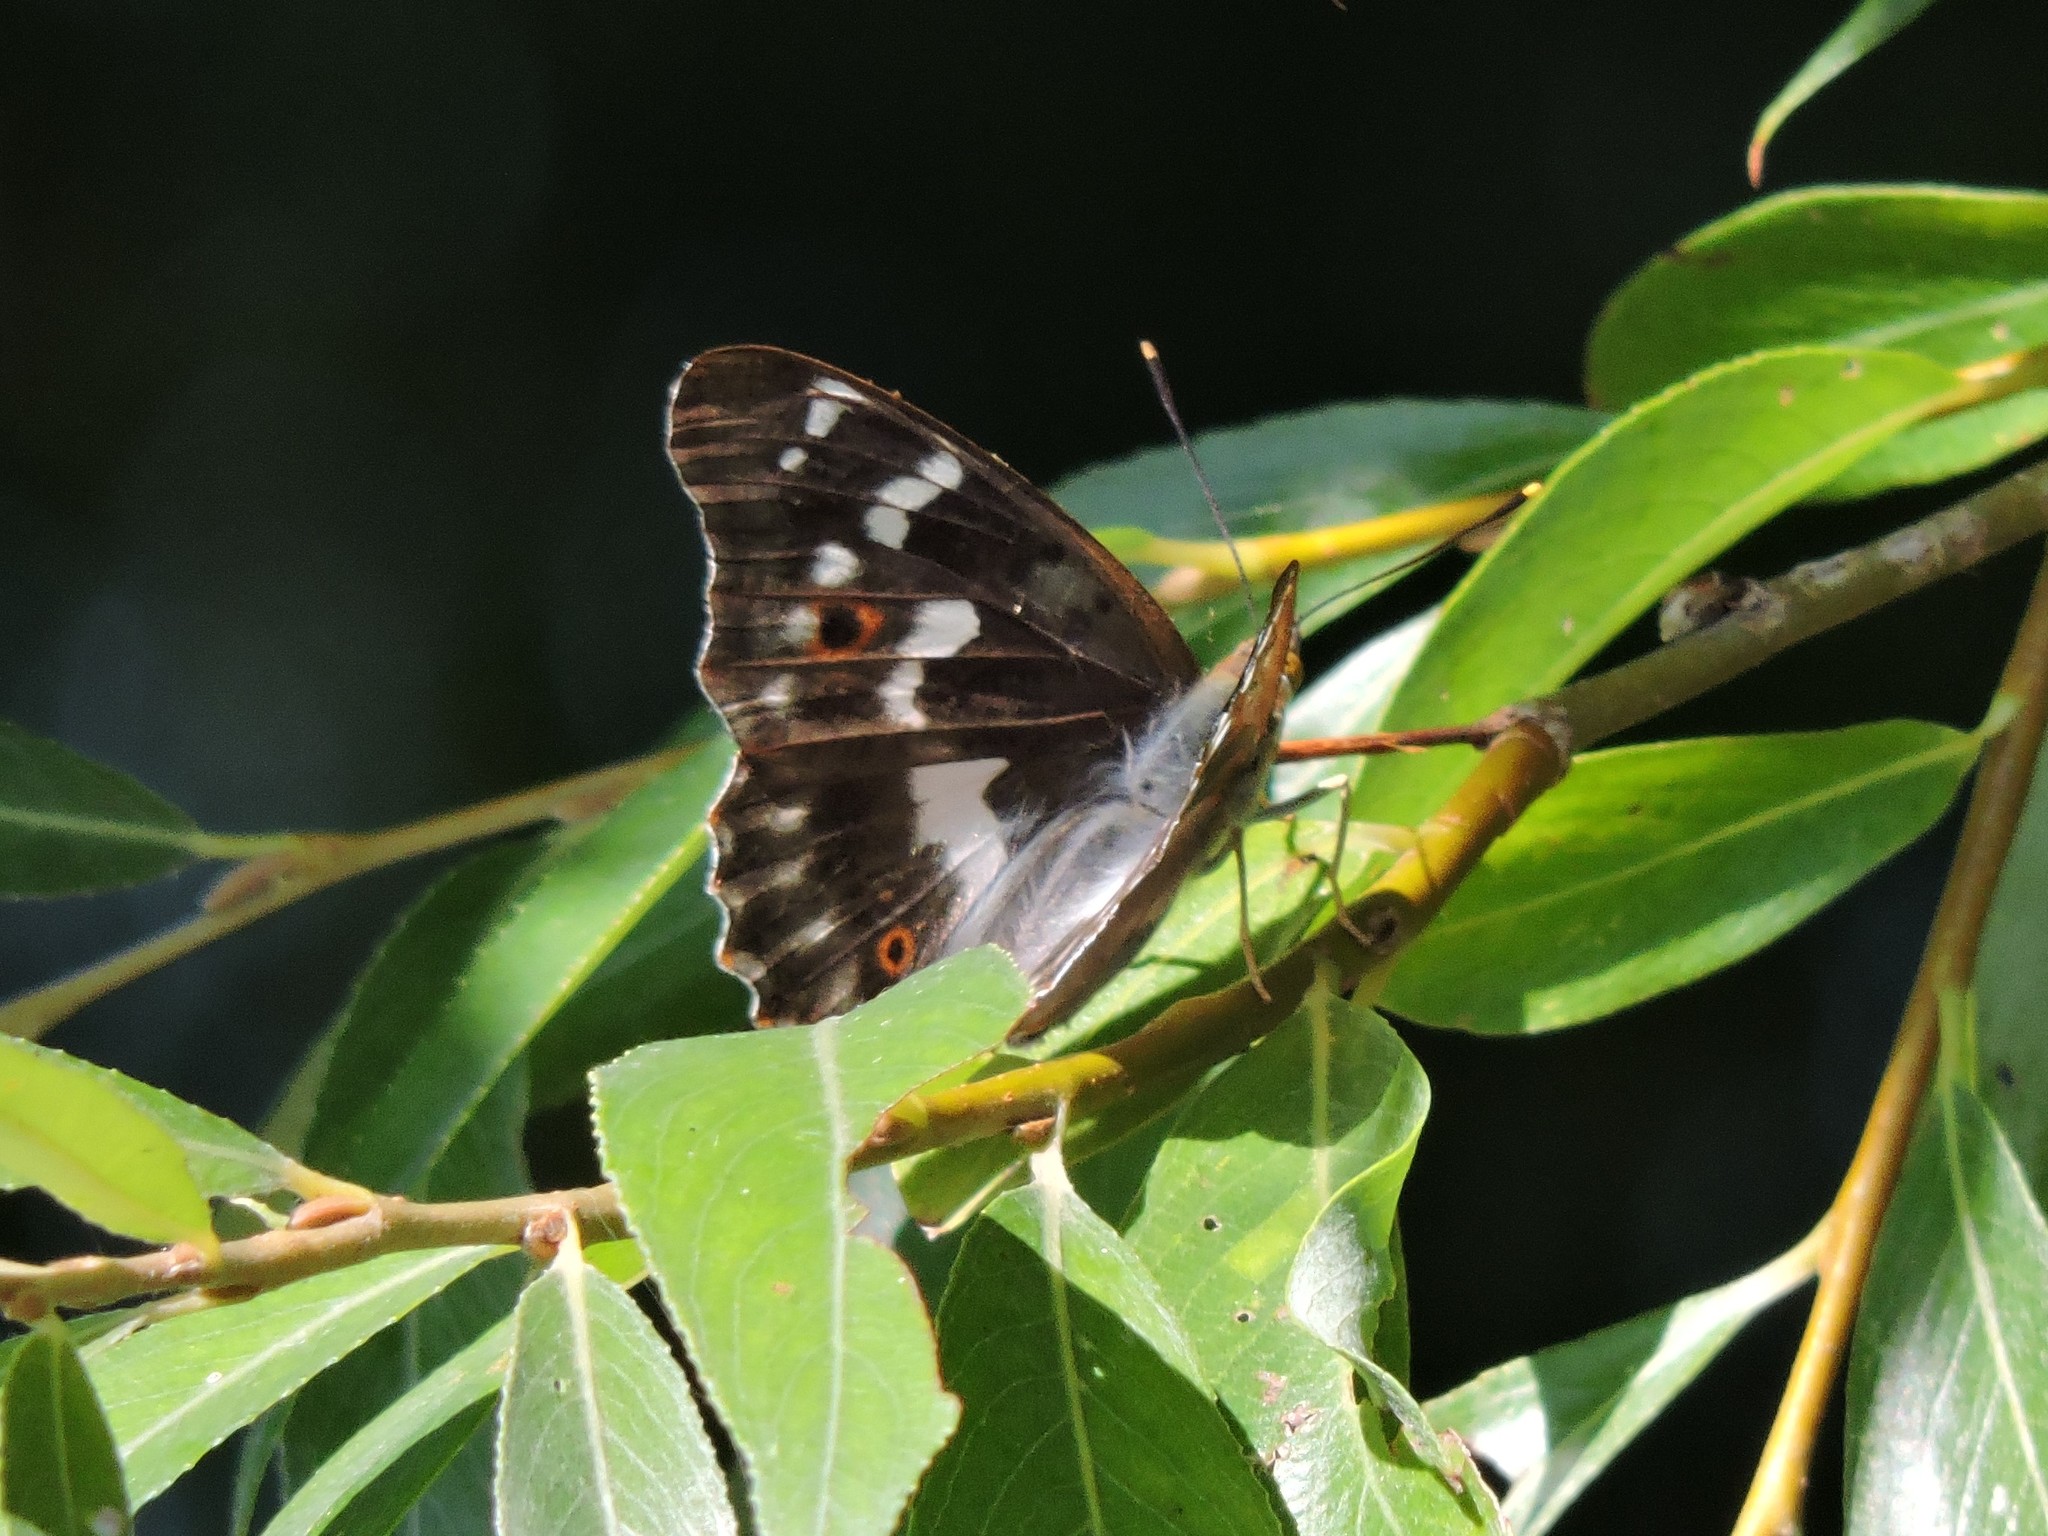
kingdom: Animalia
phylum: Arthropoda
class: Insecta
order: Lepidoptera
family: Nymphalidae
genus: Apatura
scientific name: Apatura ilia
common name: Lesser purple emperor
